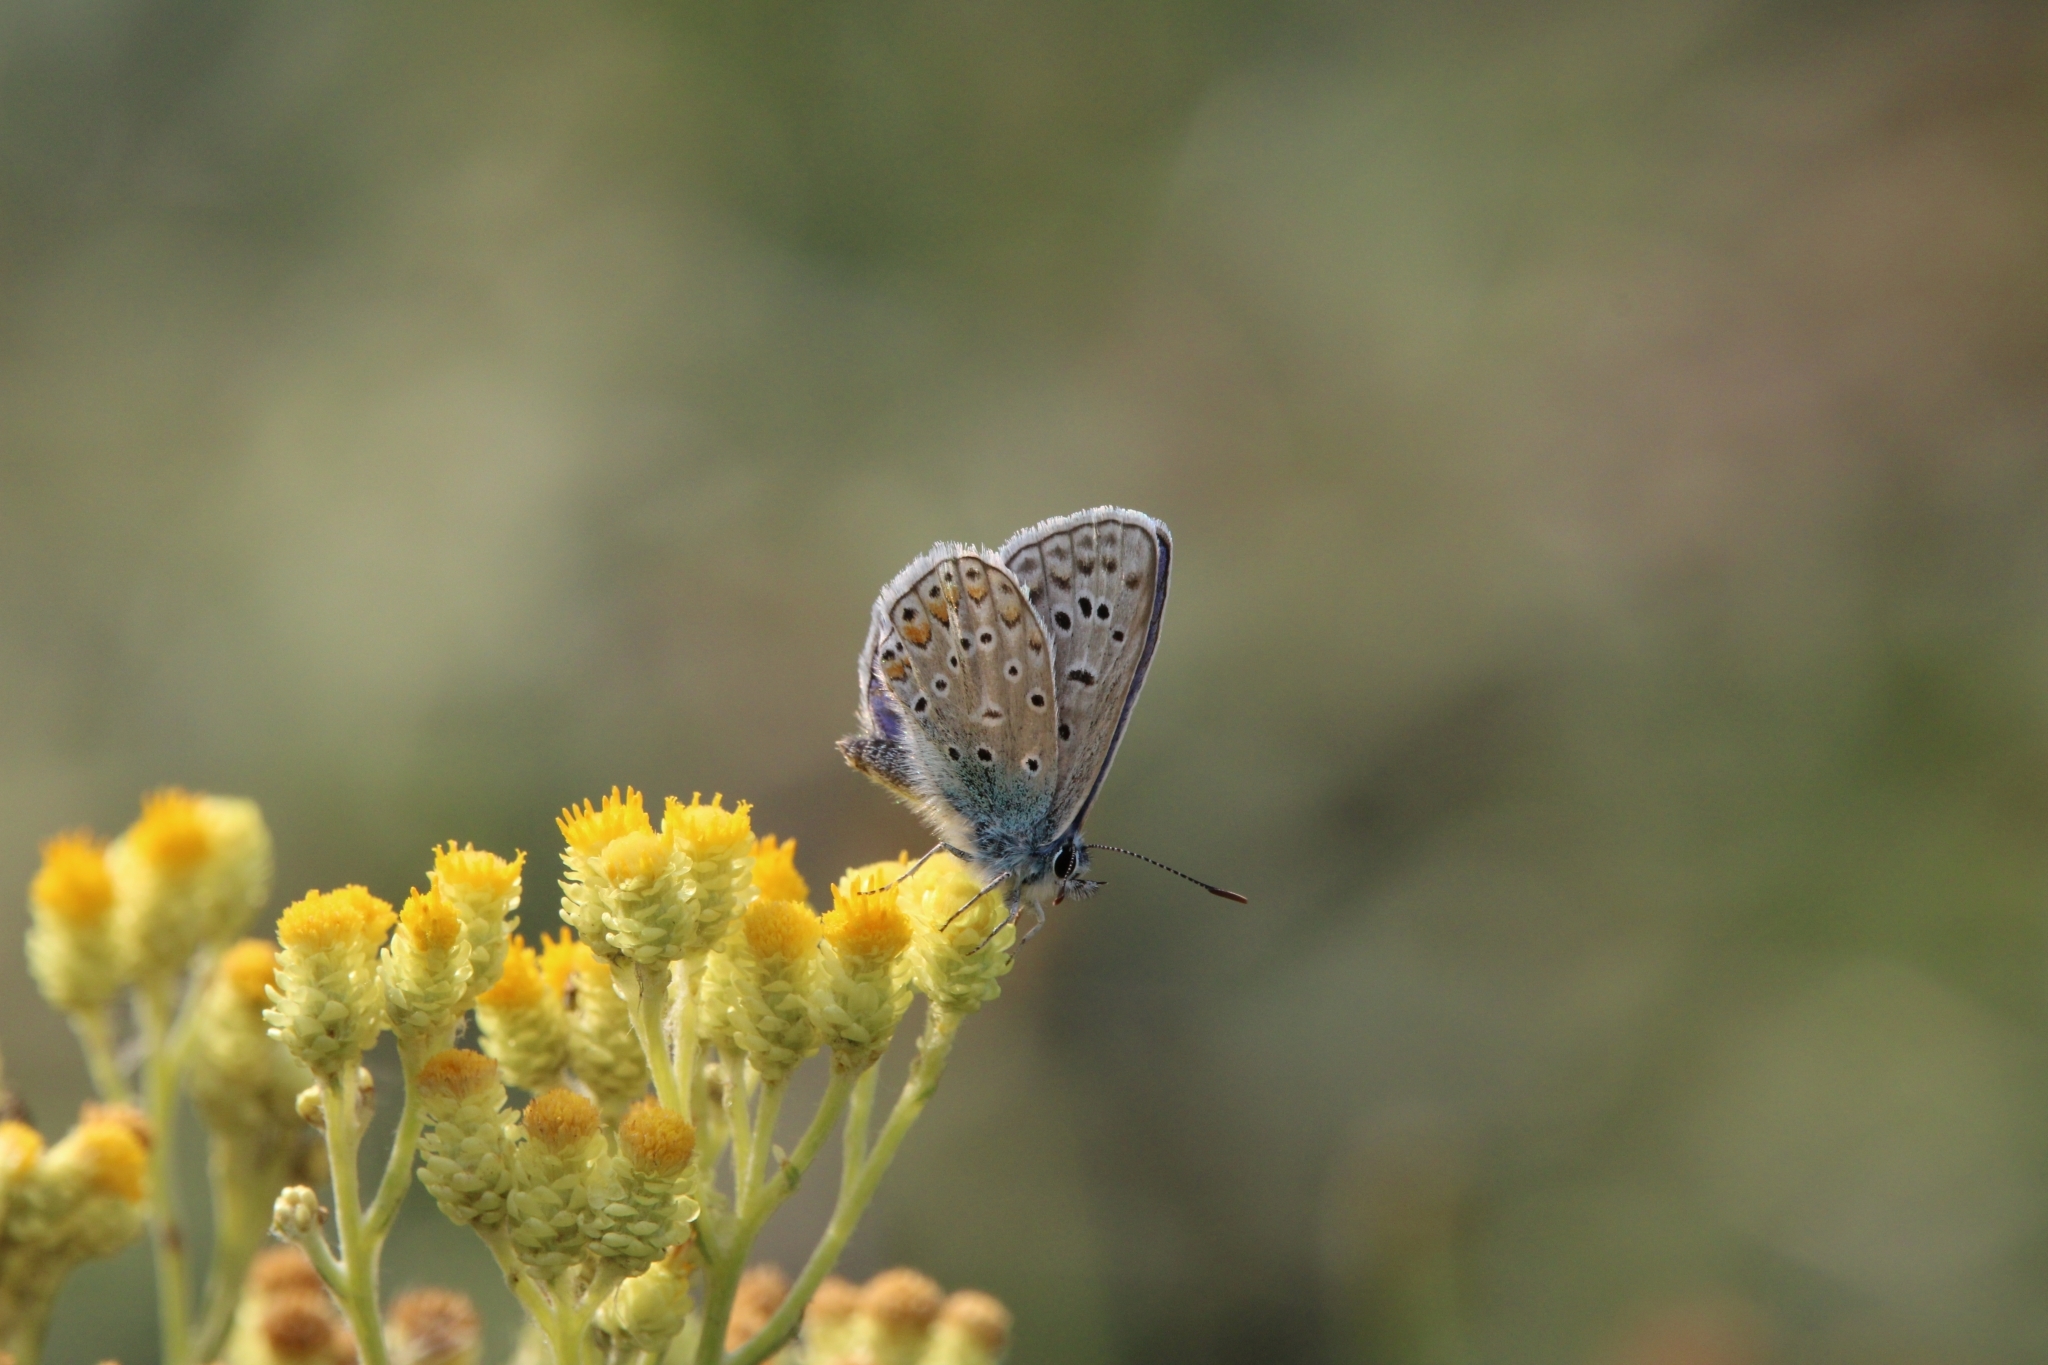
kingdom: Animalia
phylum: Arthropoda
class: Insecta
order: Lepidoptera
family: Lycaenidae
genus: Polyommatus
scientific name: Polyommatus icarus
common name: Common blue
